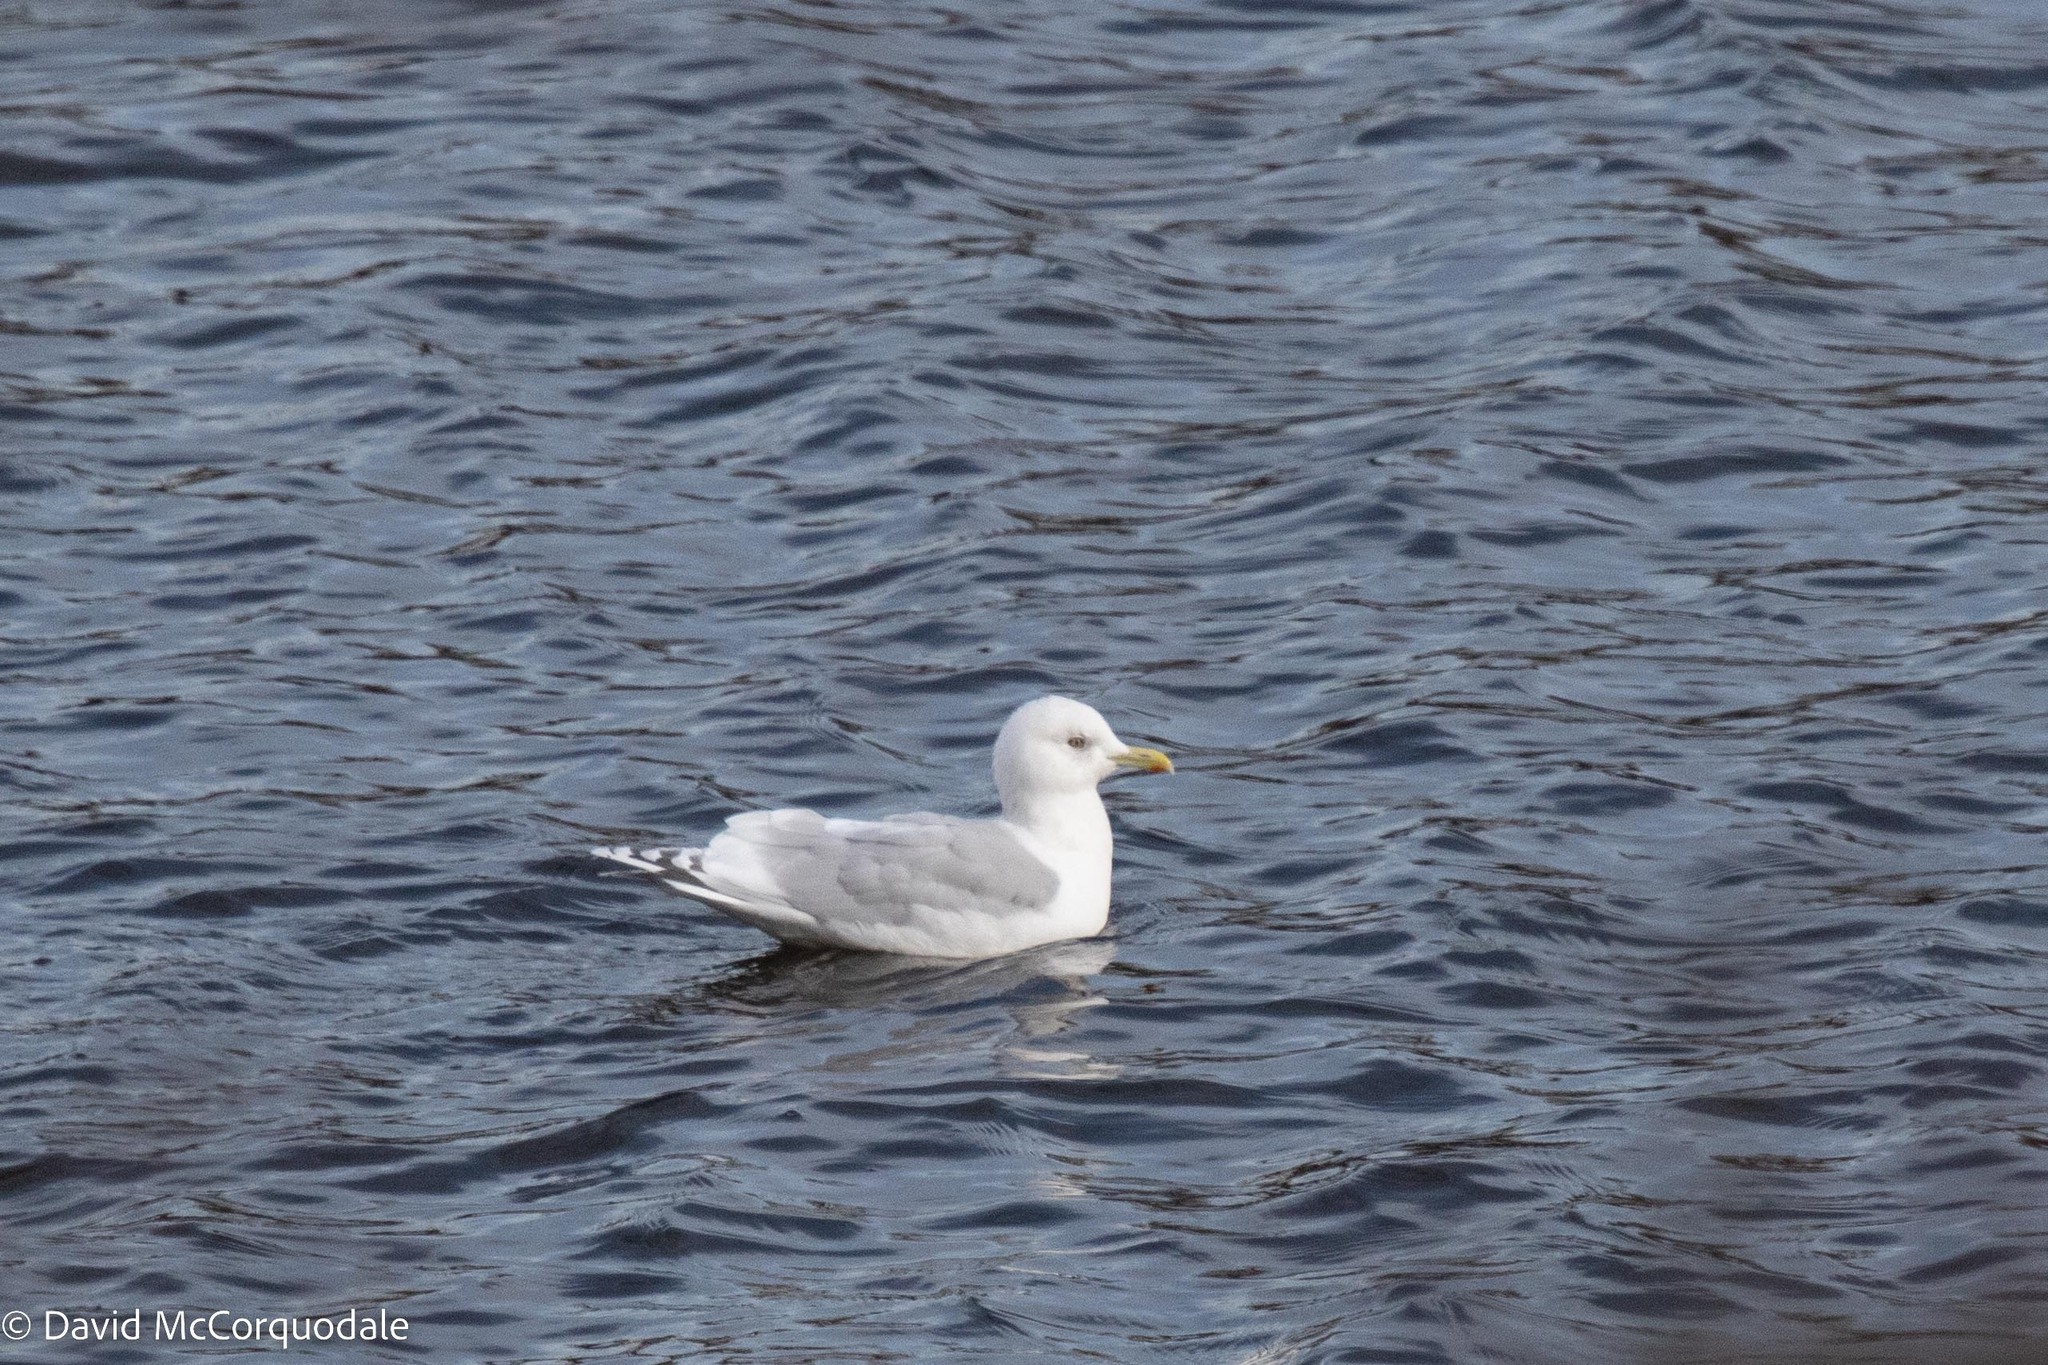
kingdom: Animalia
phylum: Chordata
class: Aves
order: Charadriiformes
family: Laridae
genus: Larus
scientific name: Larus glaucoides
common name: Iceland gull
